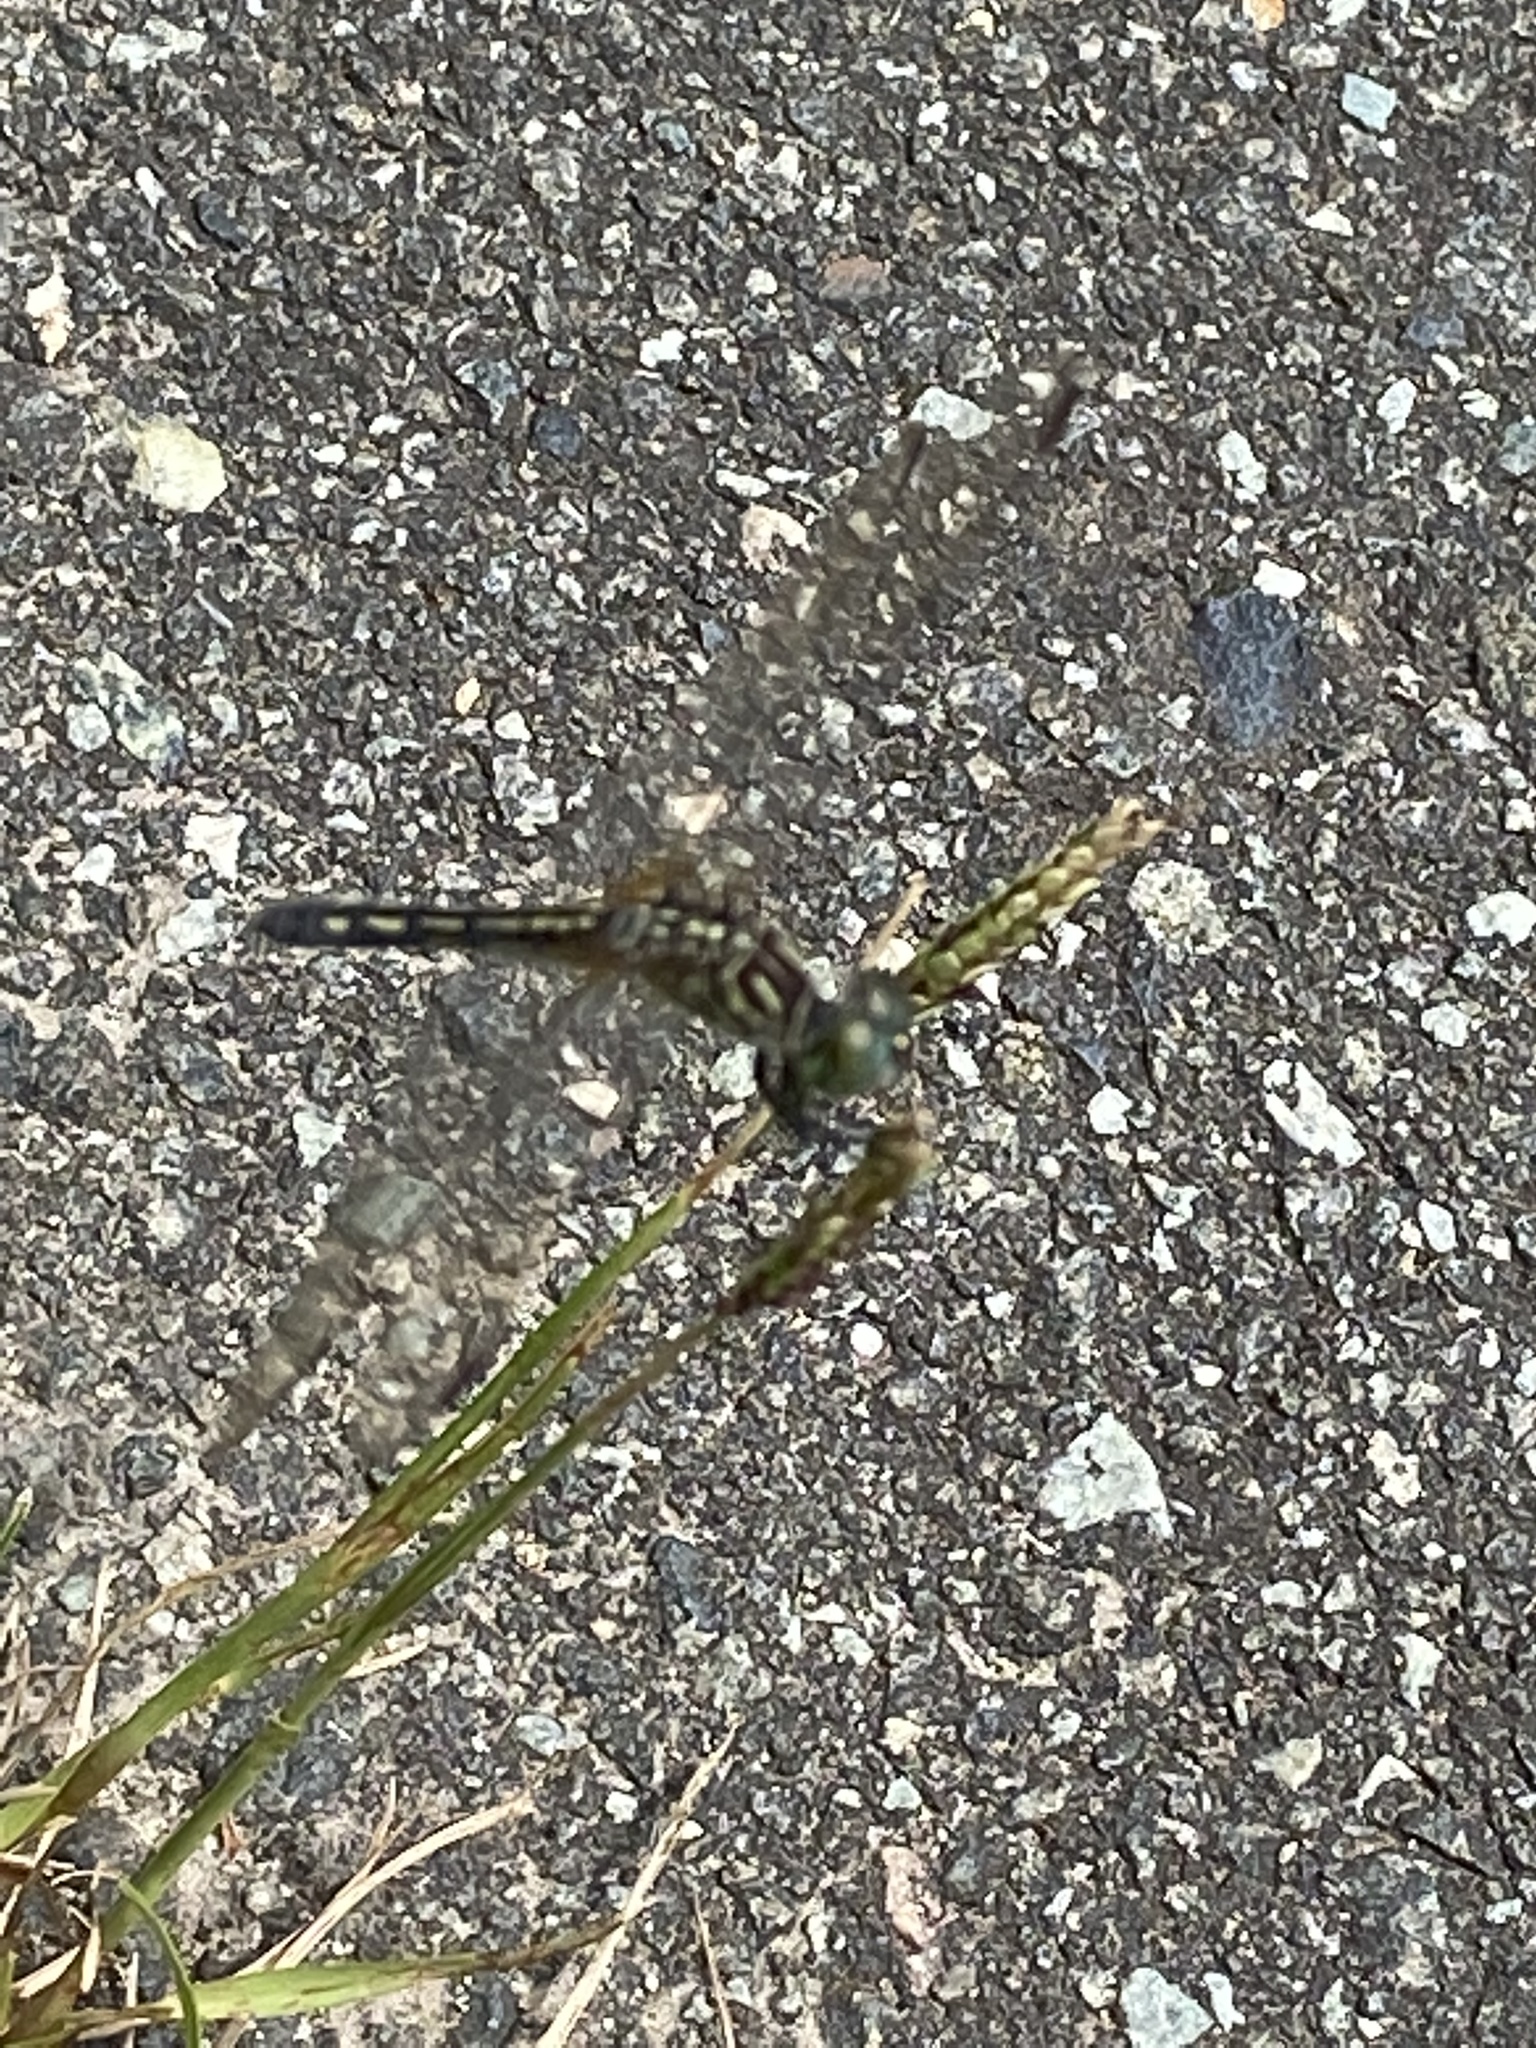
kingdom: Animalia
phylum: Arthropoda
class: Insecta
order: Odonata
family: Libellulidae
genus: Pachydiplax
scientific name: Pachydiplax longipennis
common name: Blue dasher
